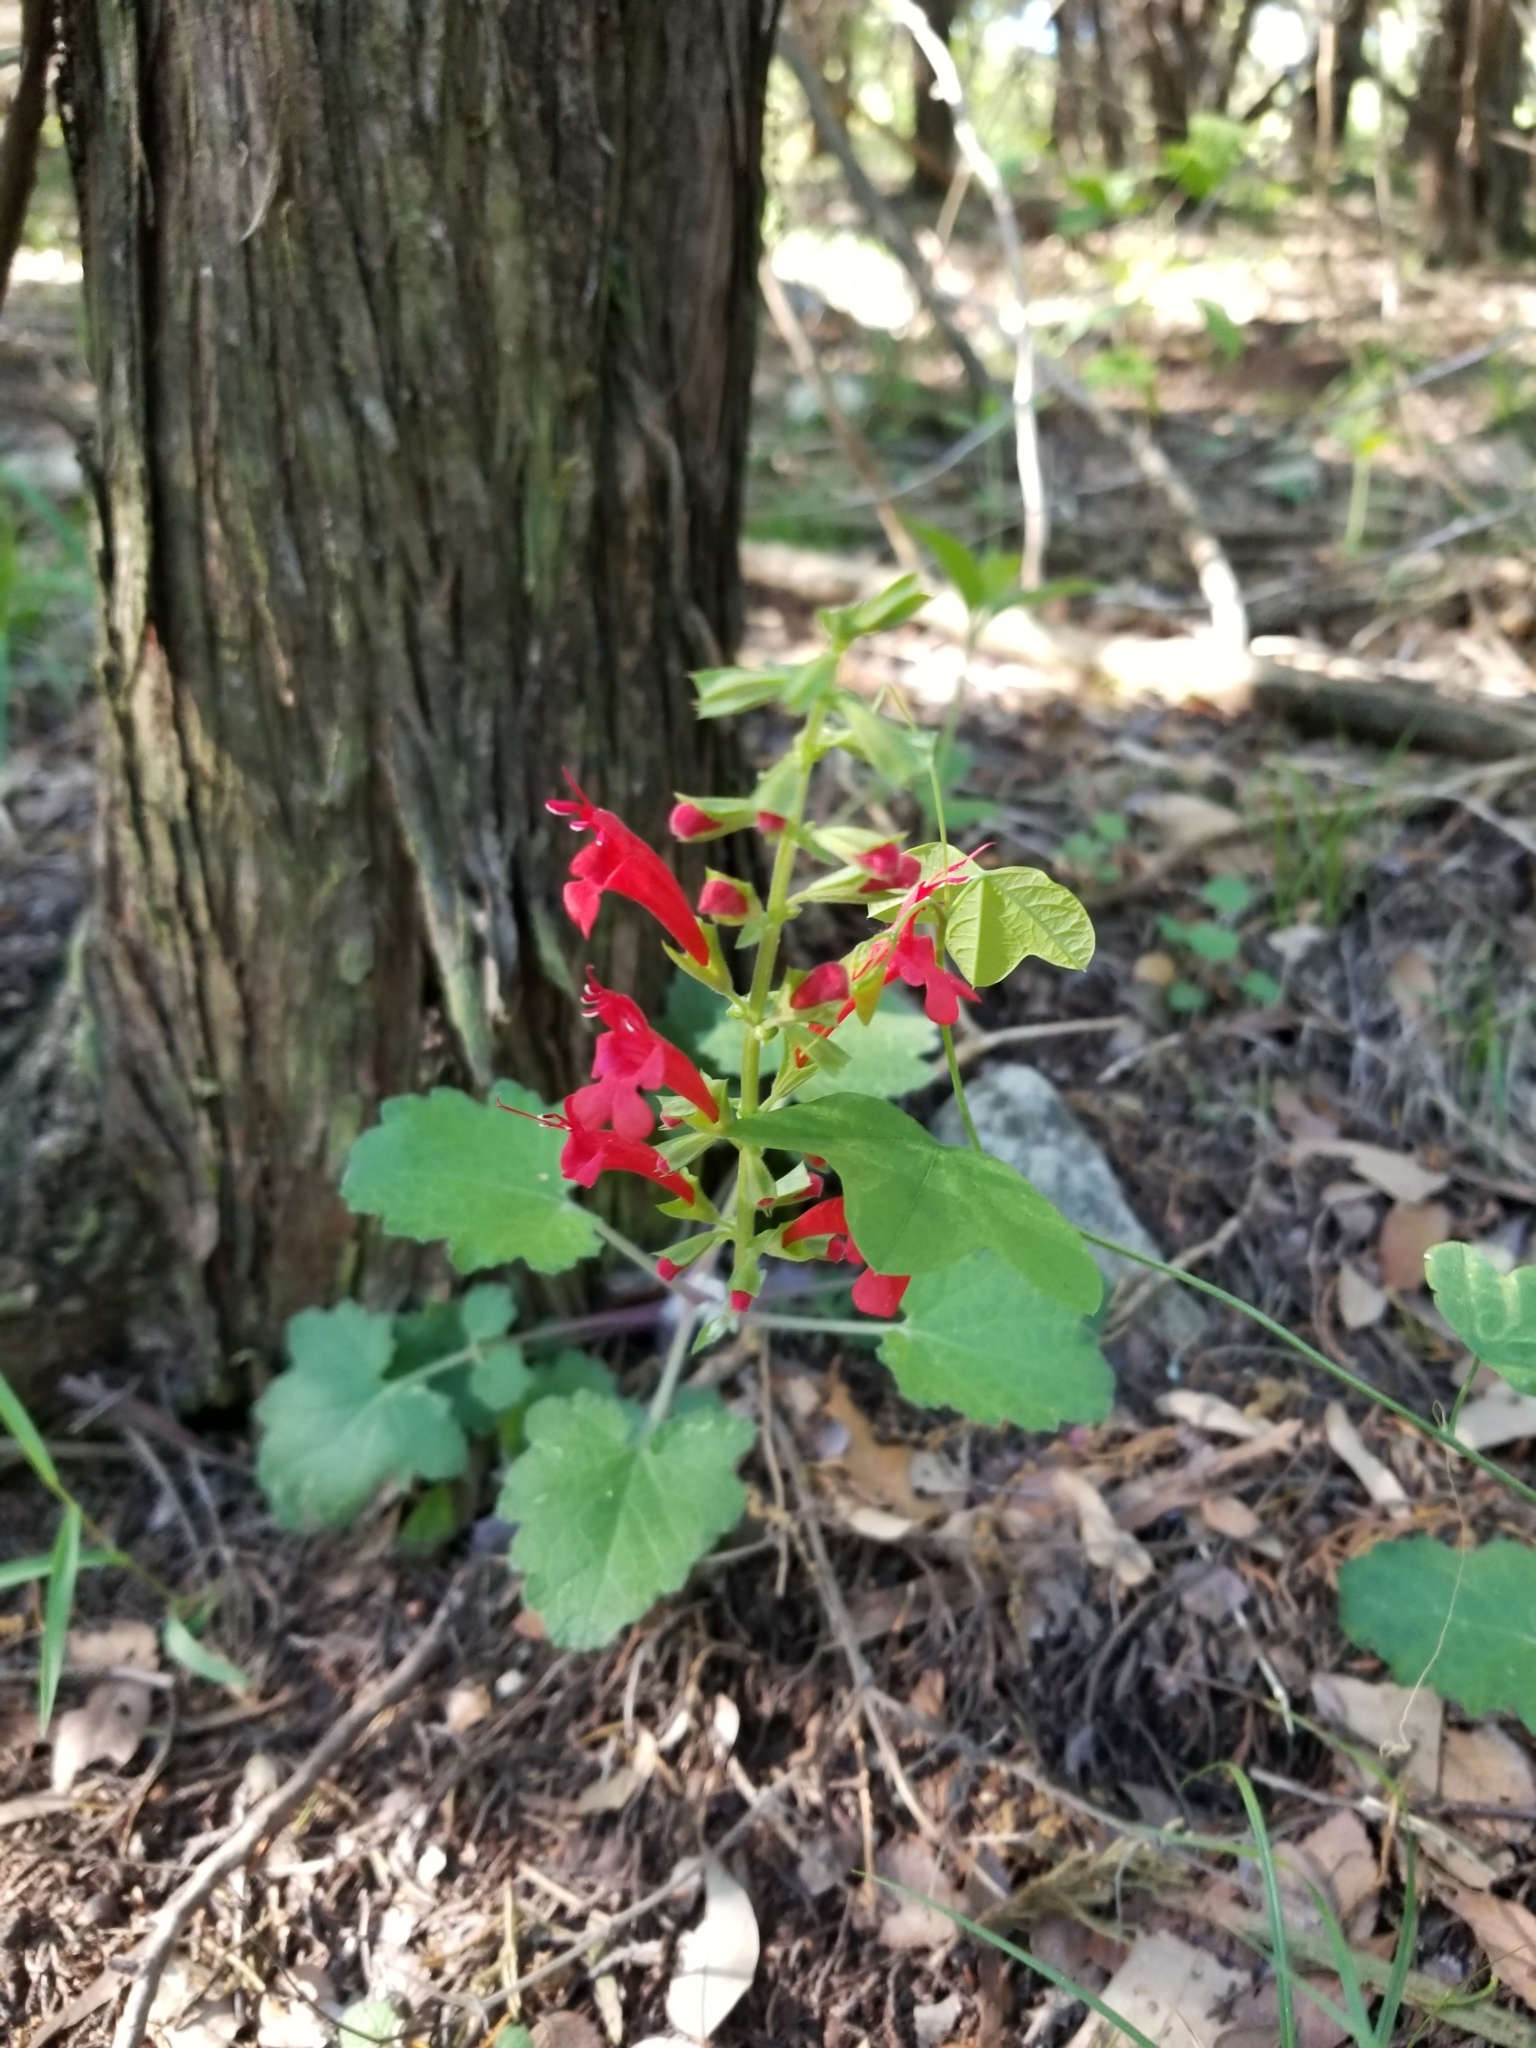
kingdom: Plantae
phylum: Tracheophyta
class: Magnoliopsida
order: Lamiales
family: Lamiaceae
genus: Salvia
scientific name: Salvia roemeriana
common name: Cedar sage
